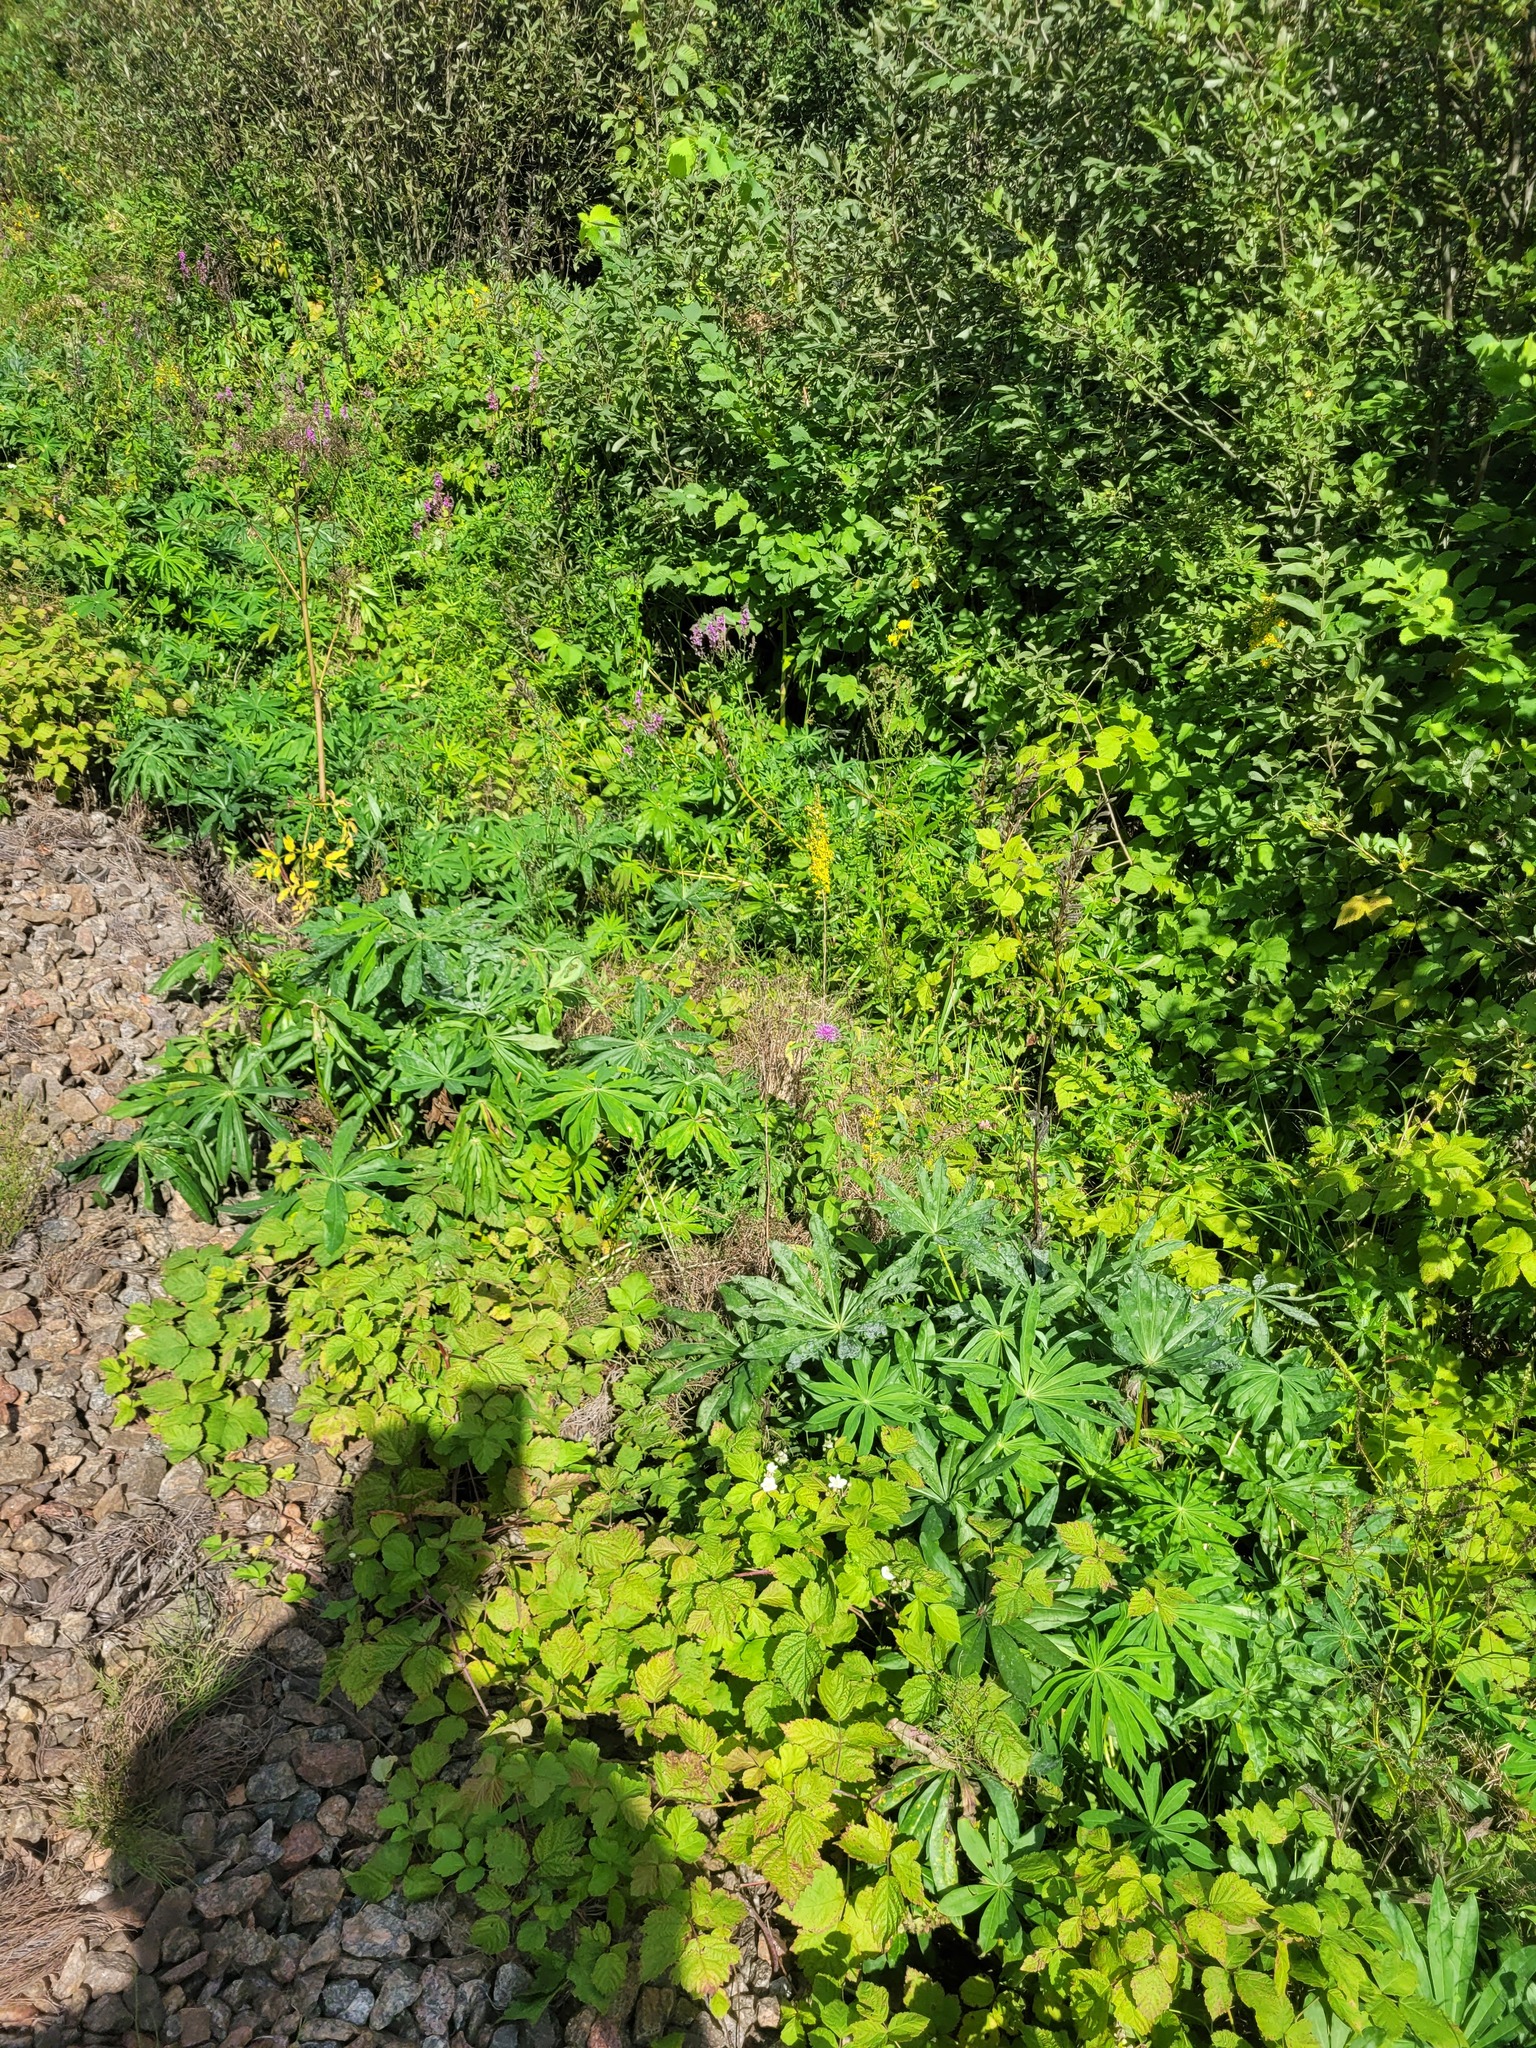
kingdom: Plantae
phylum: Tracheophyta
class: Magnoliopsida
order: Fabales
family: Fabaceae
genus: Lupinus
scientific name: Lupinus polyphyllus
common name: Garden lupin
